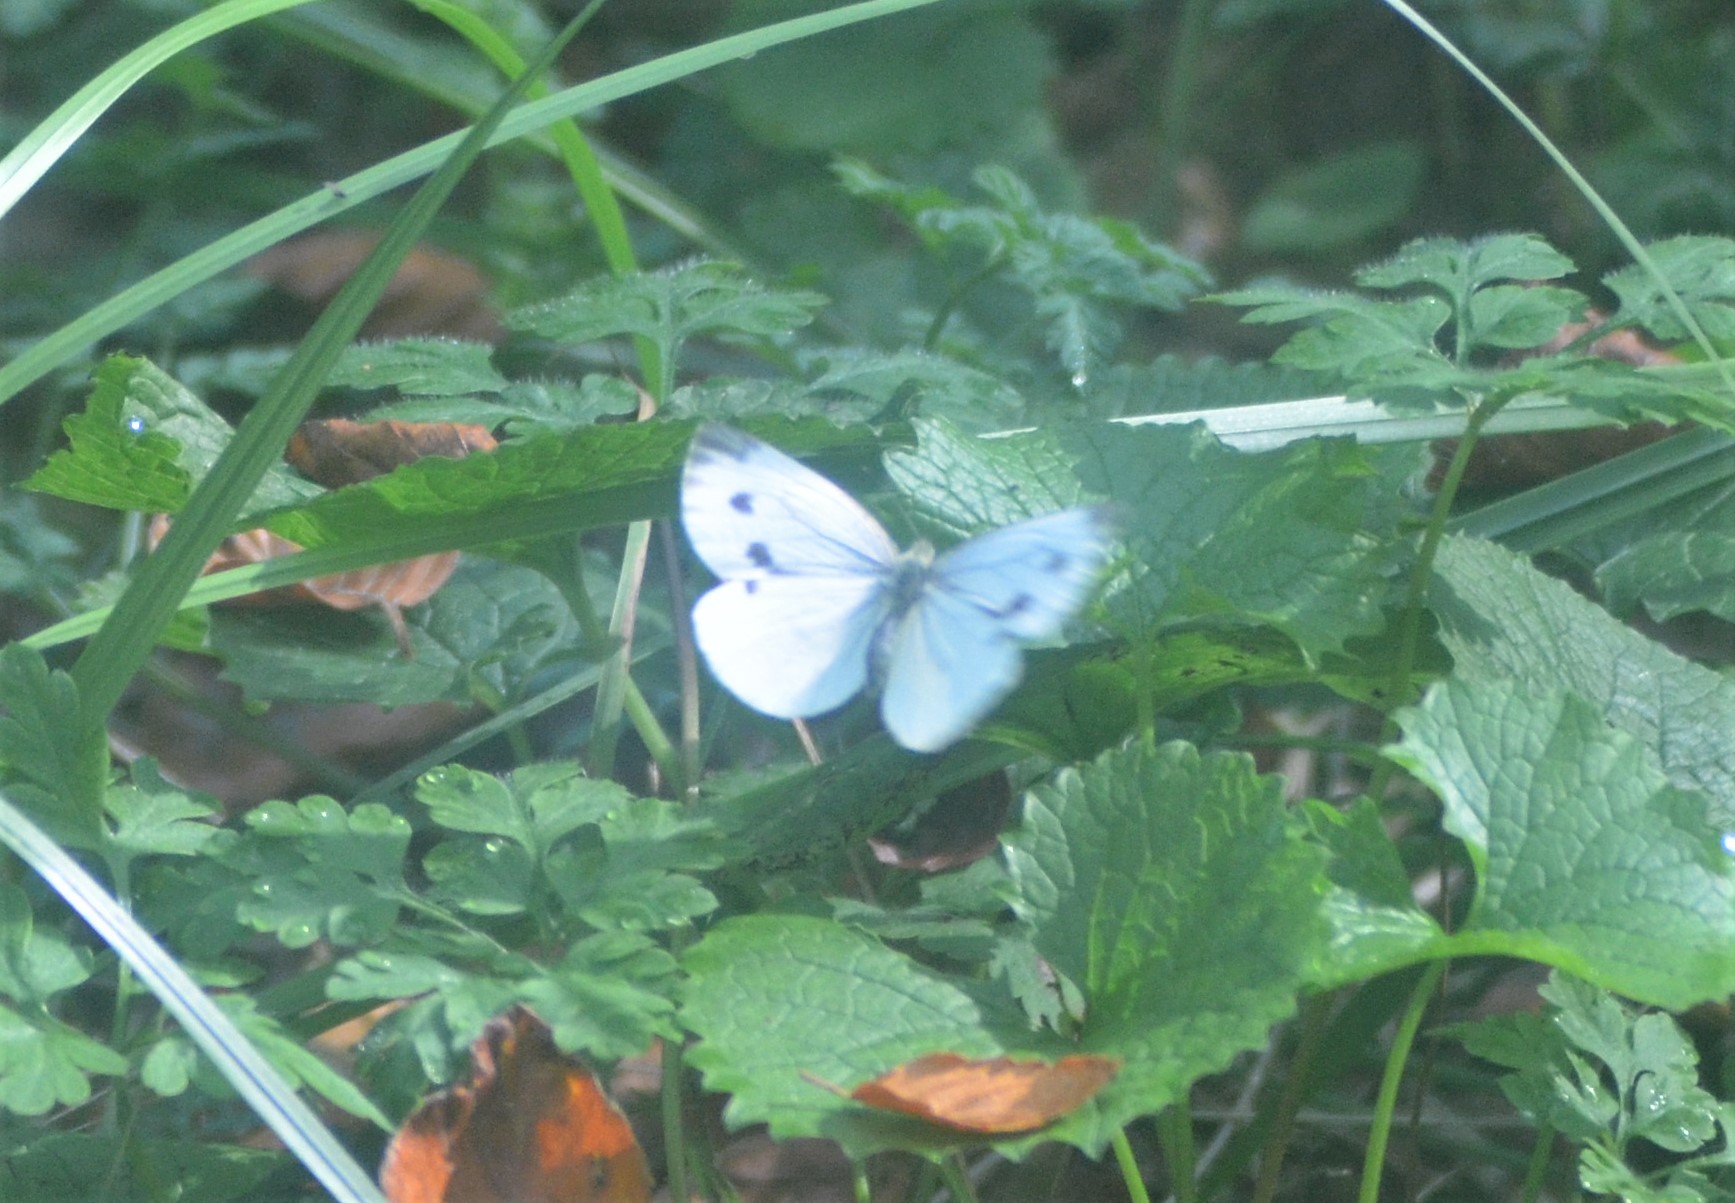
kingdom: Animalia
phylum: Arthropoda
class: Insecta
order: Lepidoptera
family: Pieridae
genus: Pieris
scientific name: Pieris napi
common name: Green-veined white
